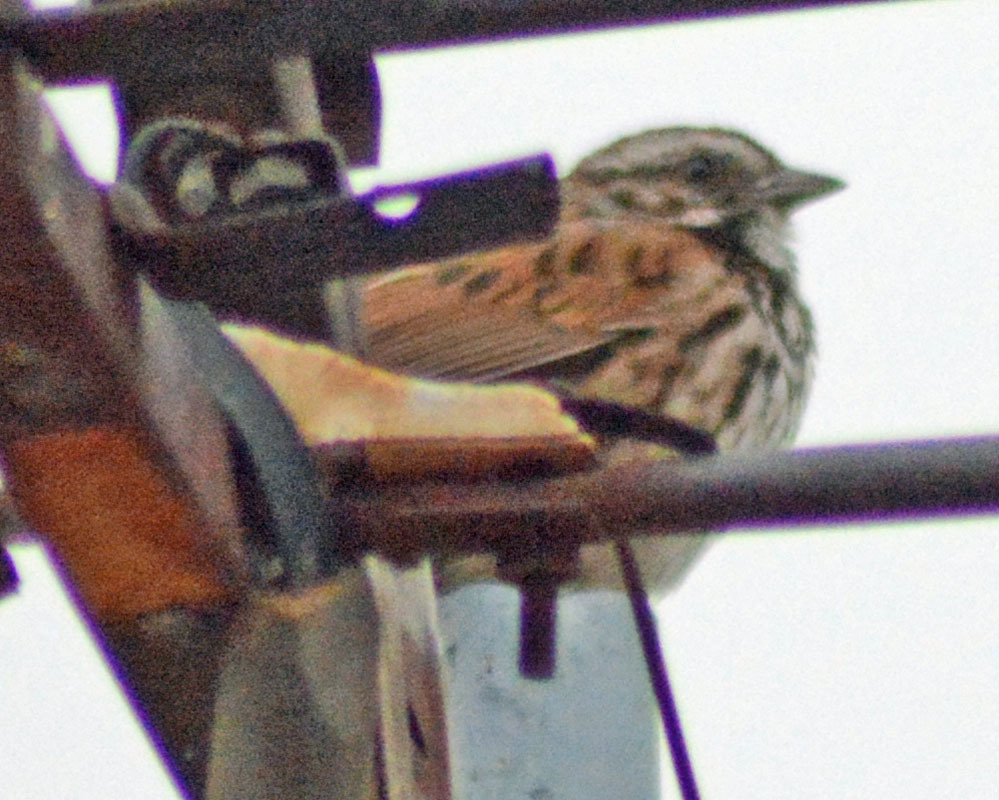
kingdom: Animalia
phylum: Chordata
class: Aves
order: Passeriformes
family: Passerellidae
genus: Melospiza
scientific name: Melospiza melodia
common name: Song sparrow
